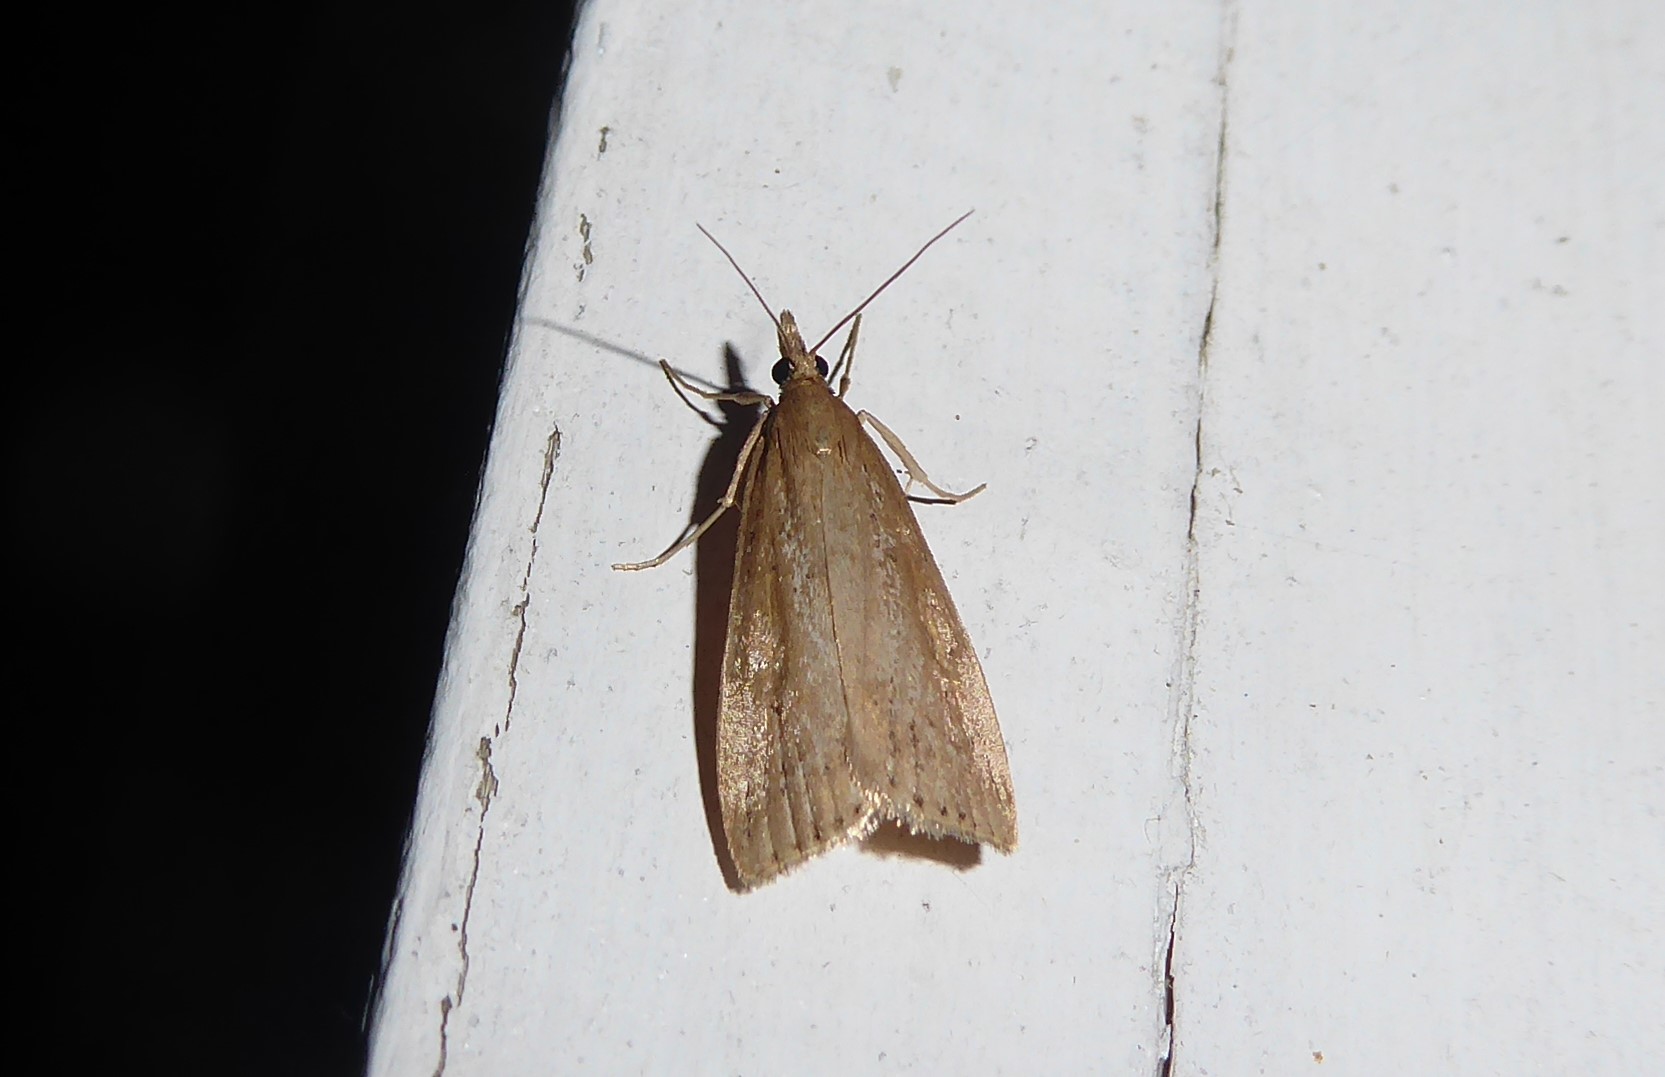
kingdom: Animalia
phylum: Arthropoda
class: Insecta
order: Lepidoptera
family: Crambidae
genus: Eudonia
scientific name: Eudonia sabulosella
